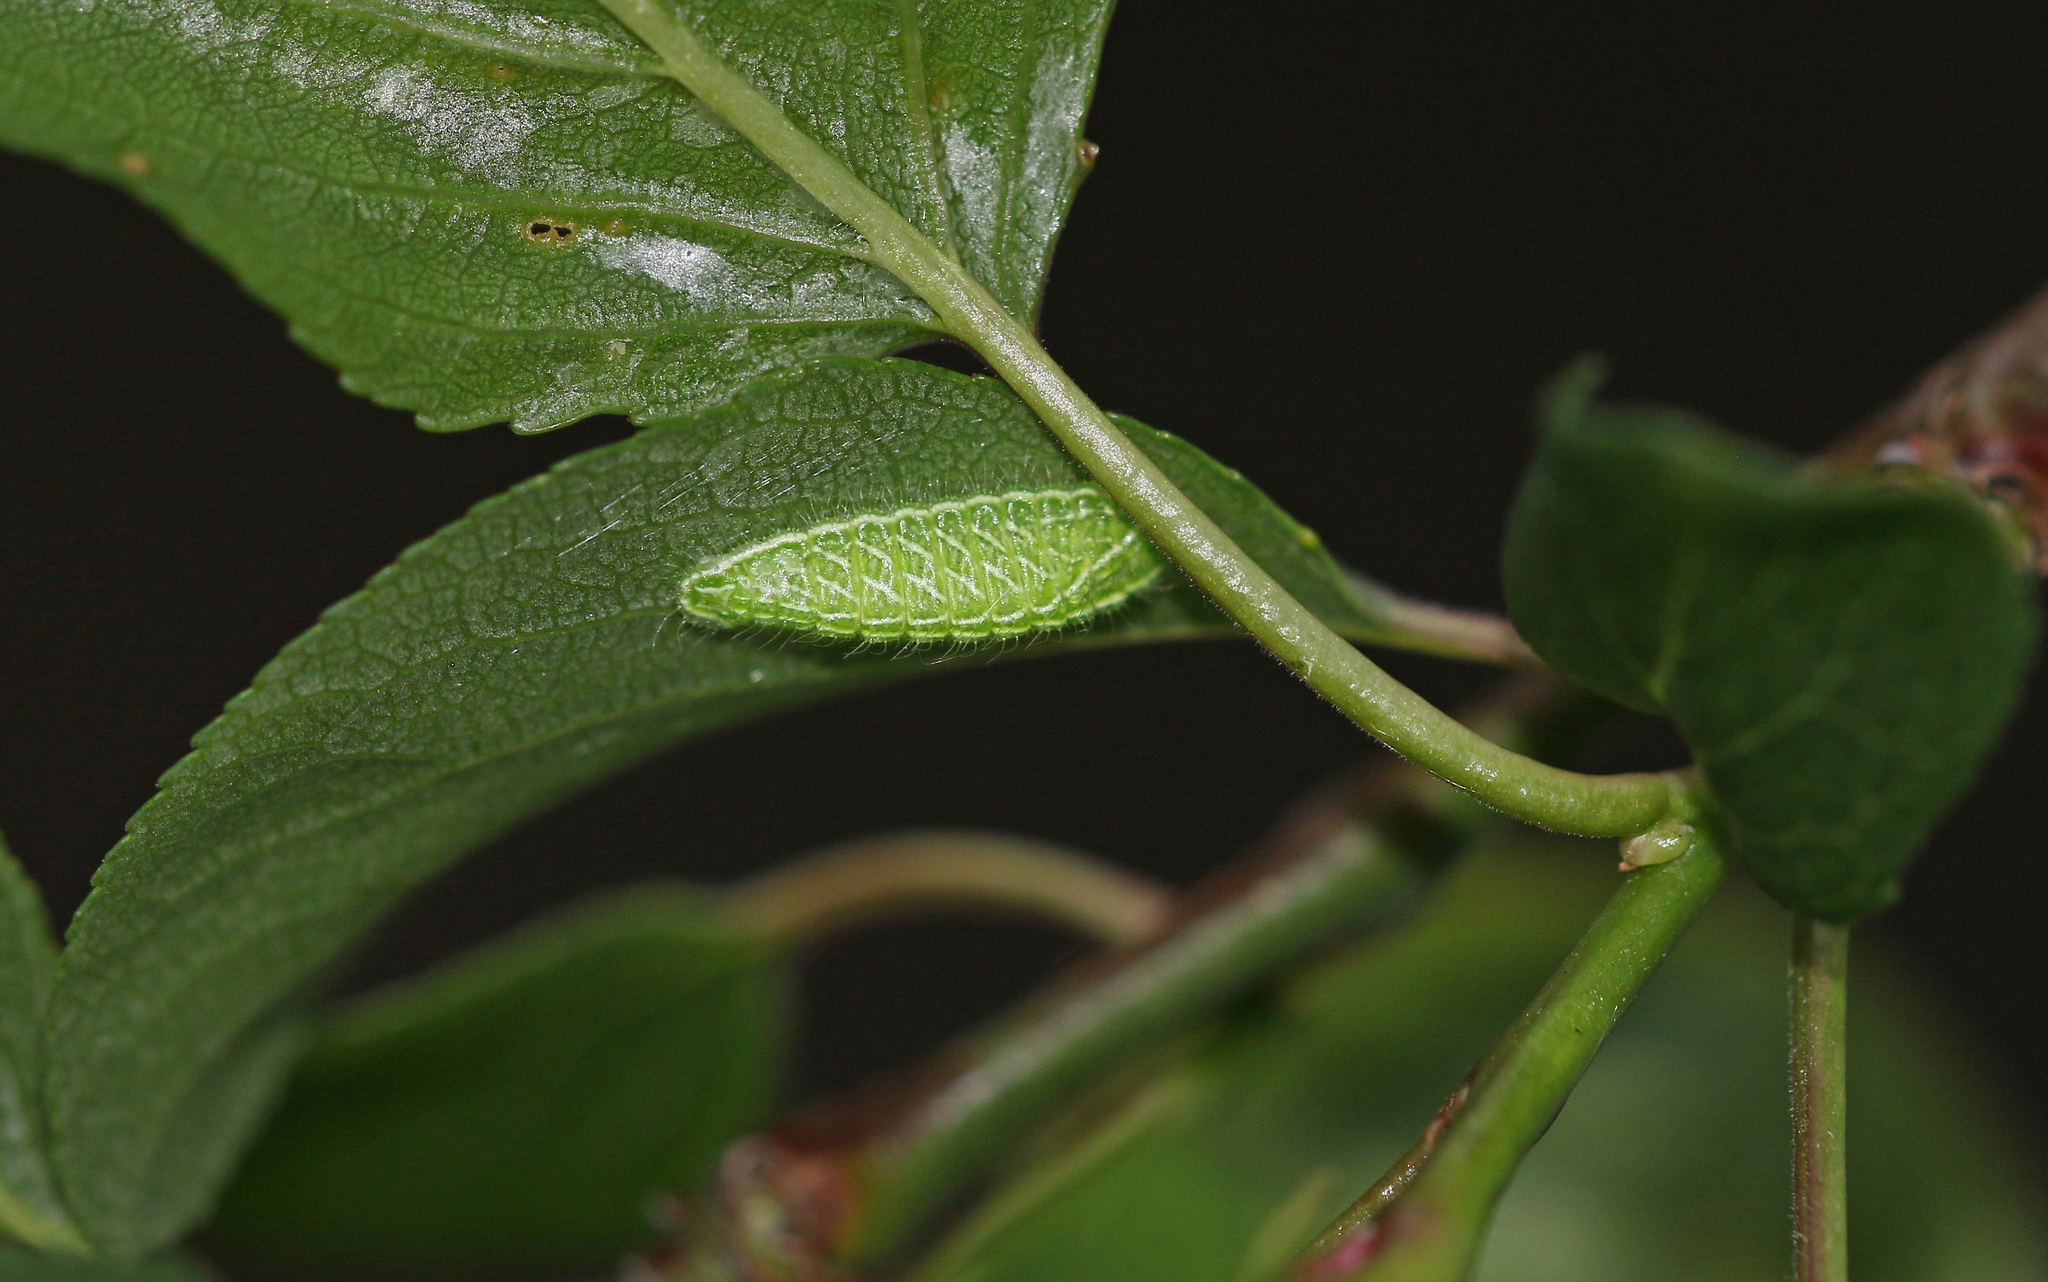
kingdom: Animalia
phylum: Arthropoda
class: Insecta
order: Lepidoptera
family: Lycaenidae
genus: Thecla
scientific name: Thecla betulae
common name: Brown hairstreak
